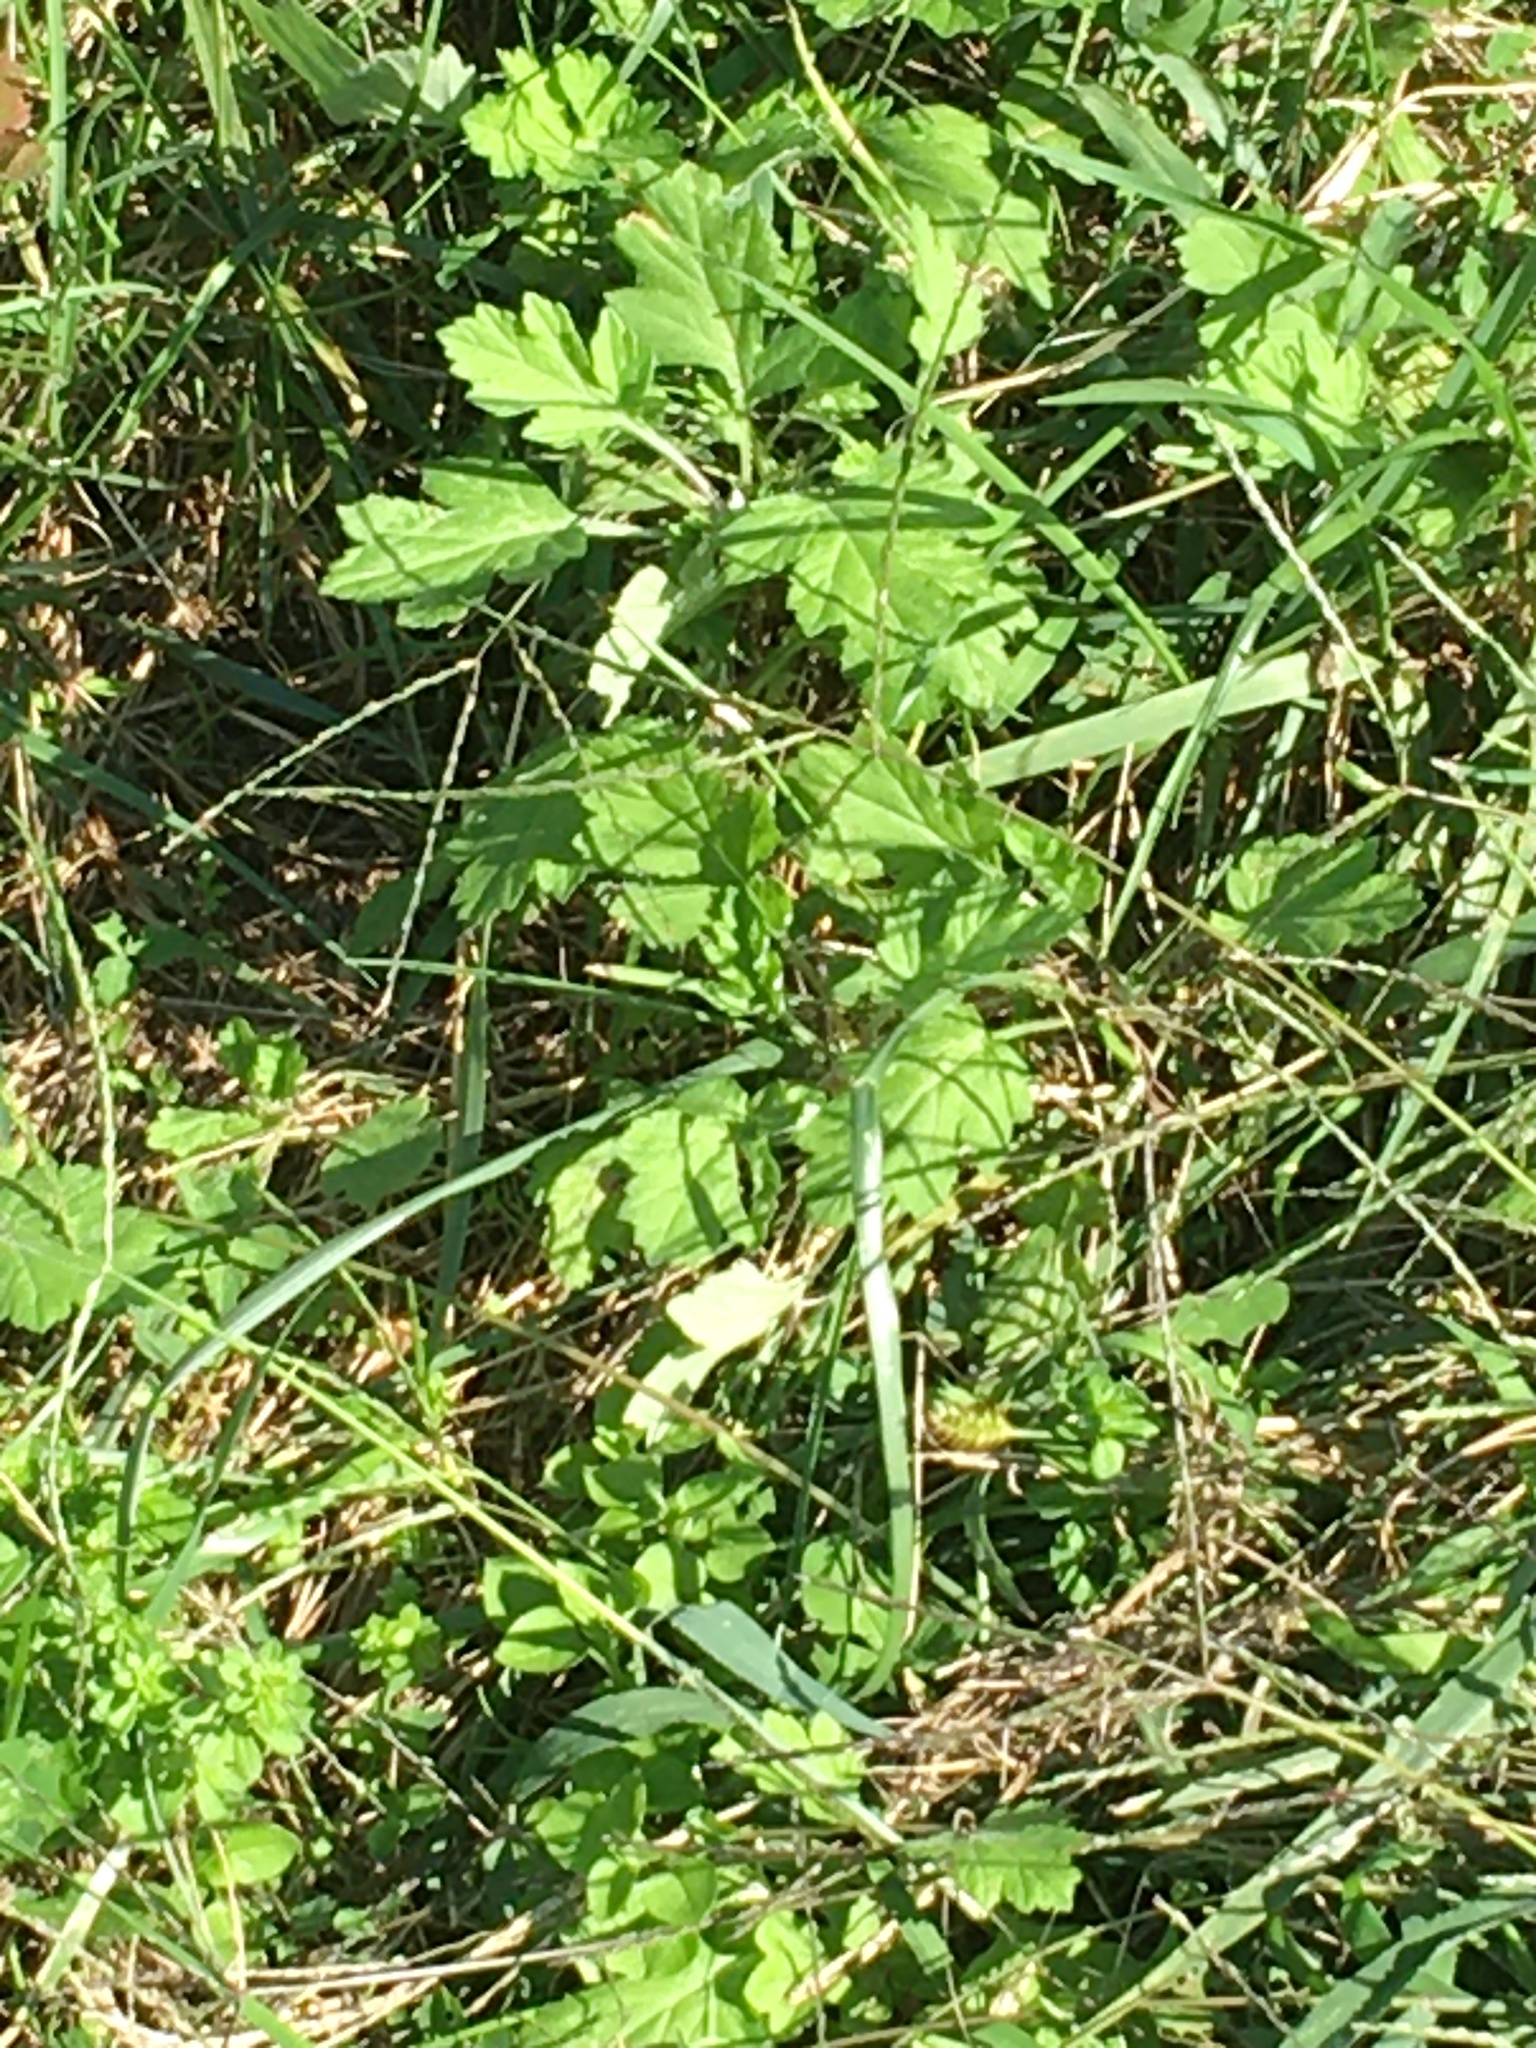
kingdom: Plantae
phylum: Tracheophyta
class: Magnoliopsida
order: Asterales
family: Asteraceae
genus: Artemisia
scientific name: Artemisia vulgaris
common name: Mugwort
